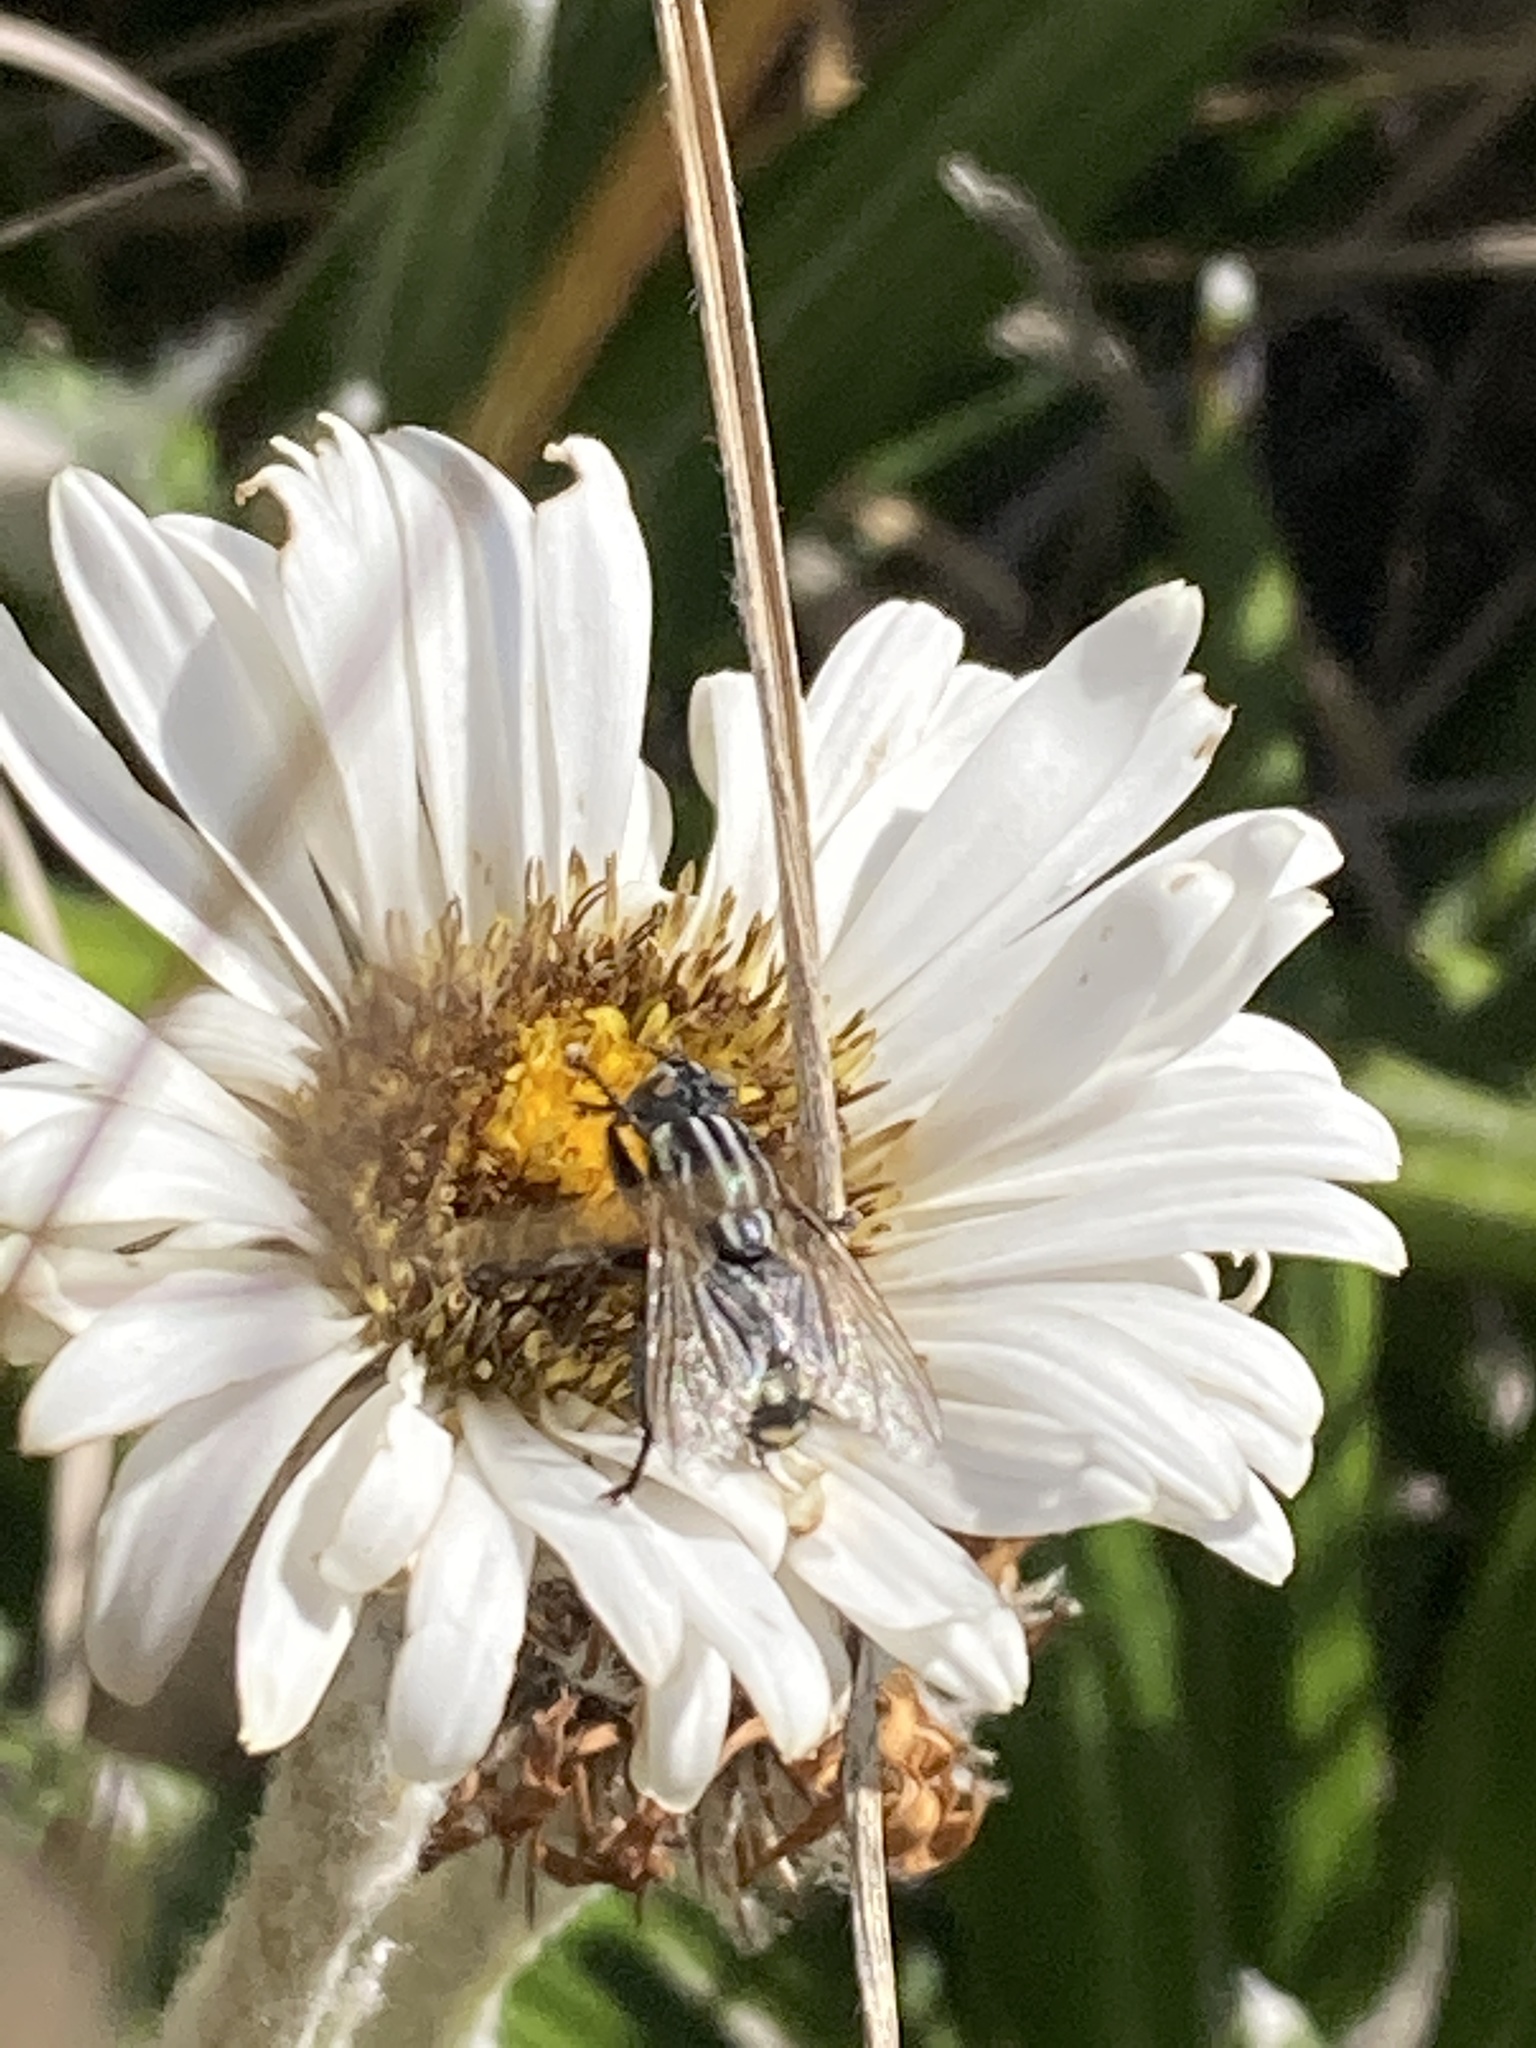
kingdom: Animalia
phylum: Arthropoda
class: Insecta
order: Diptera
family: Sarcophagidae
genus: Oxysarcodexia
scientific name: Oxysarcodexia varia
